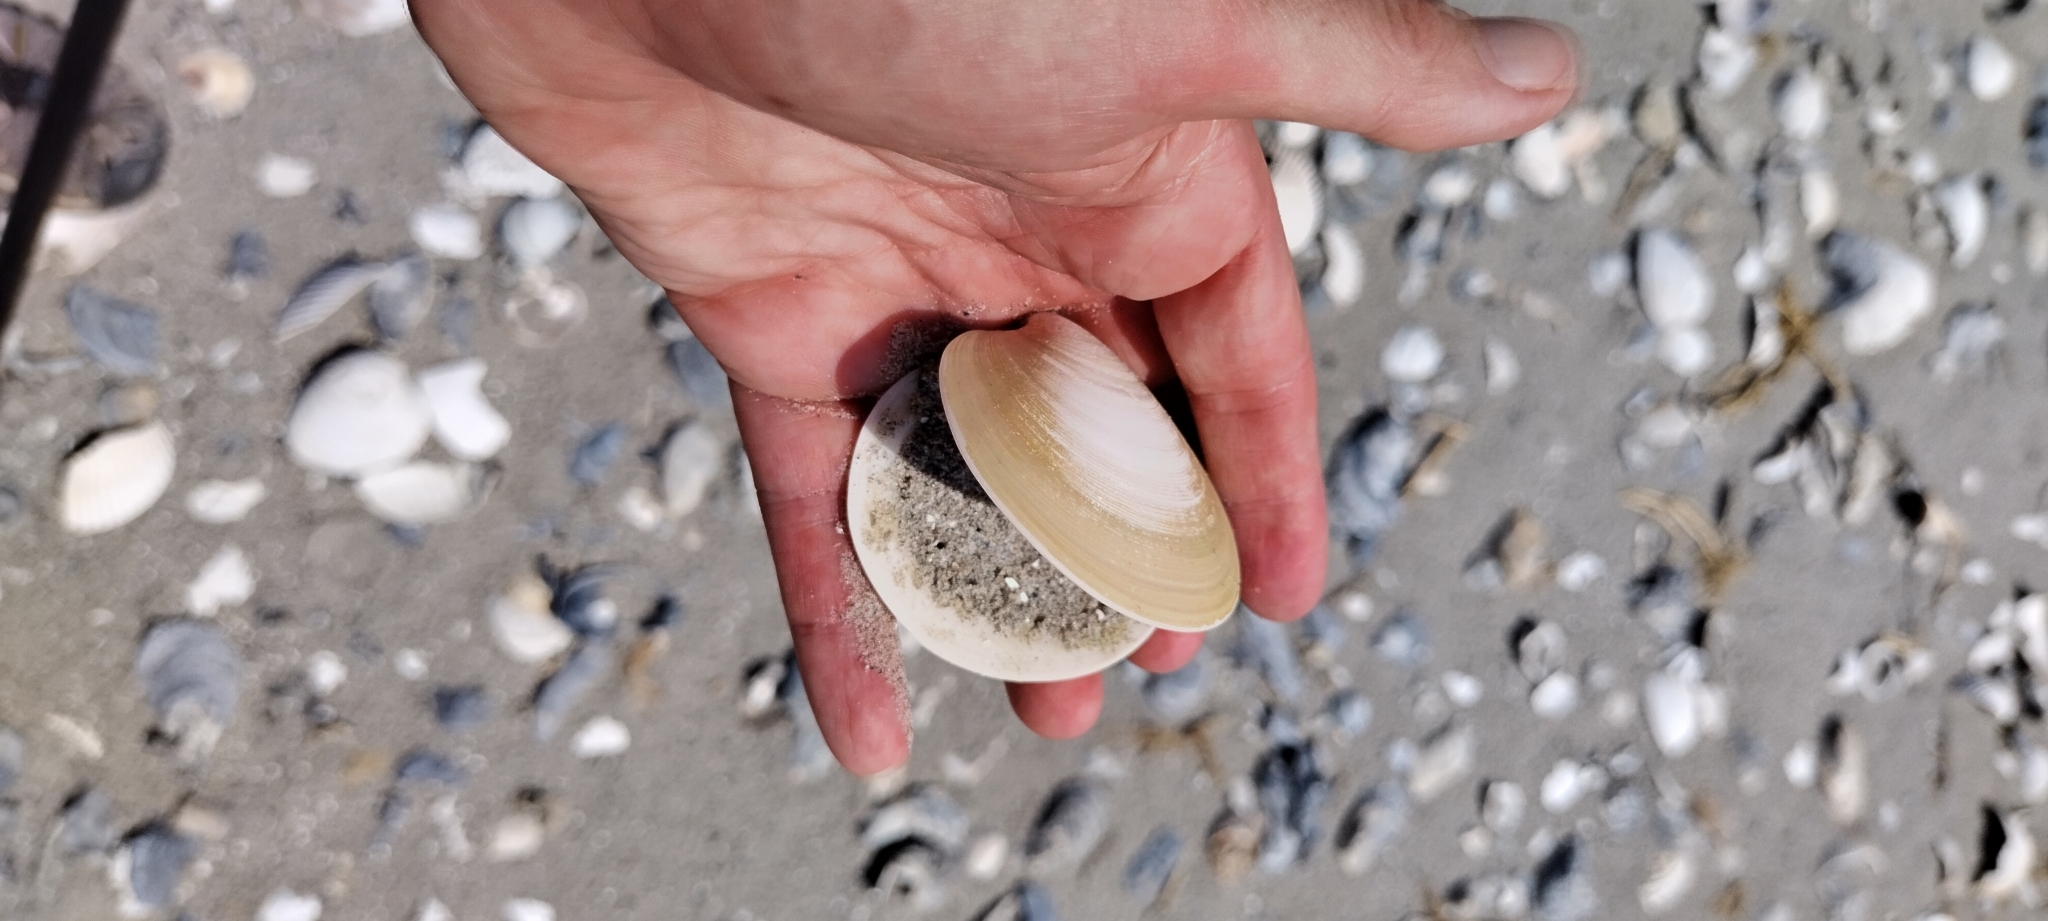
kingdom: Animalia
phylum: Mollusca
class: Bivalvia
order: Venerida
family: Veneridae
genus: Dosinia
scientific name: Dosinia discus
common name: Disk dosinia
